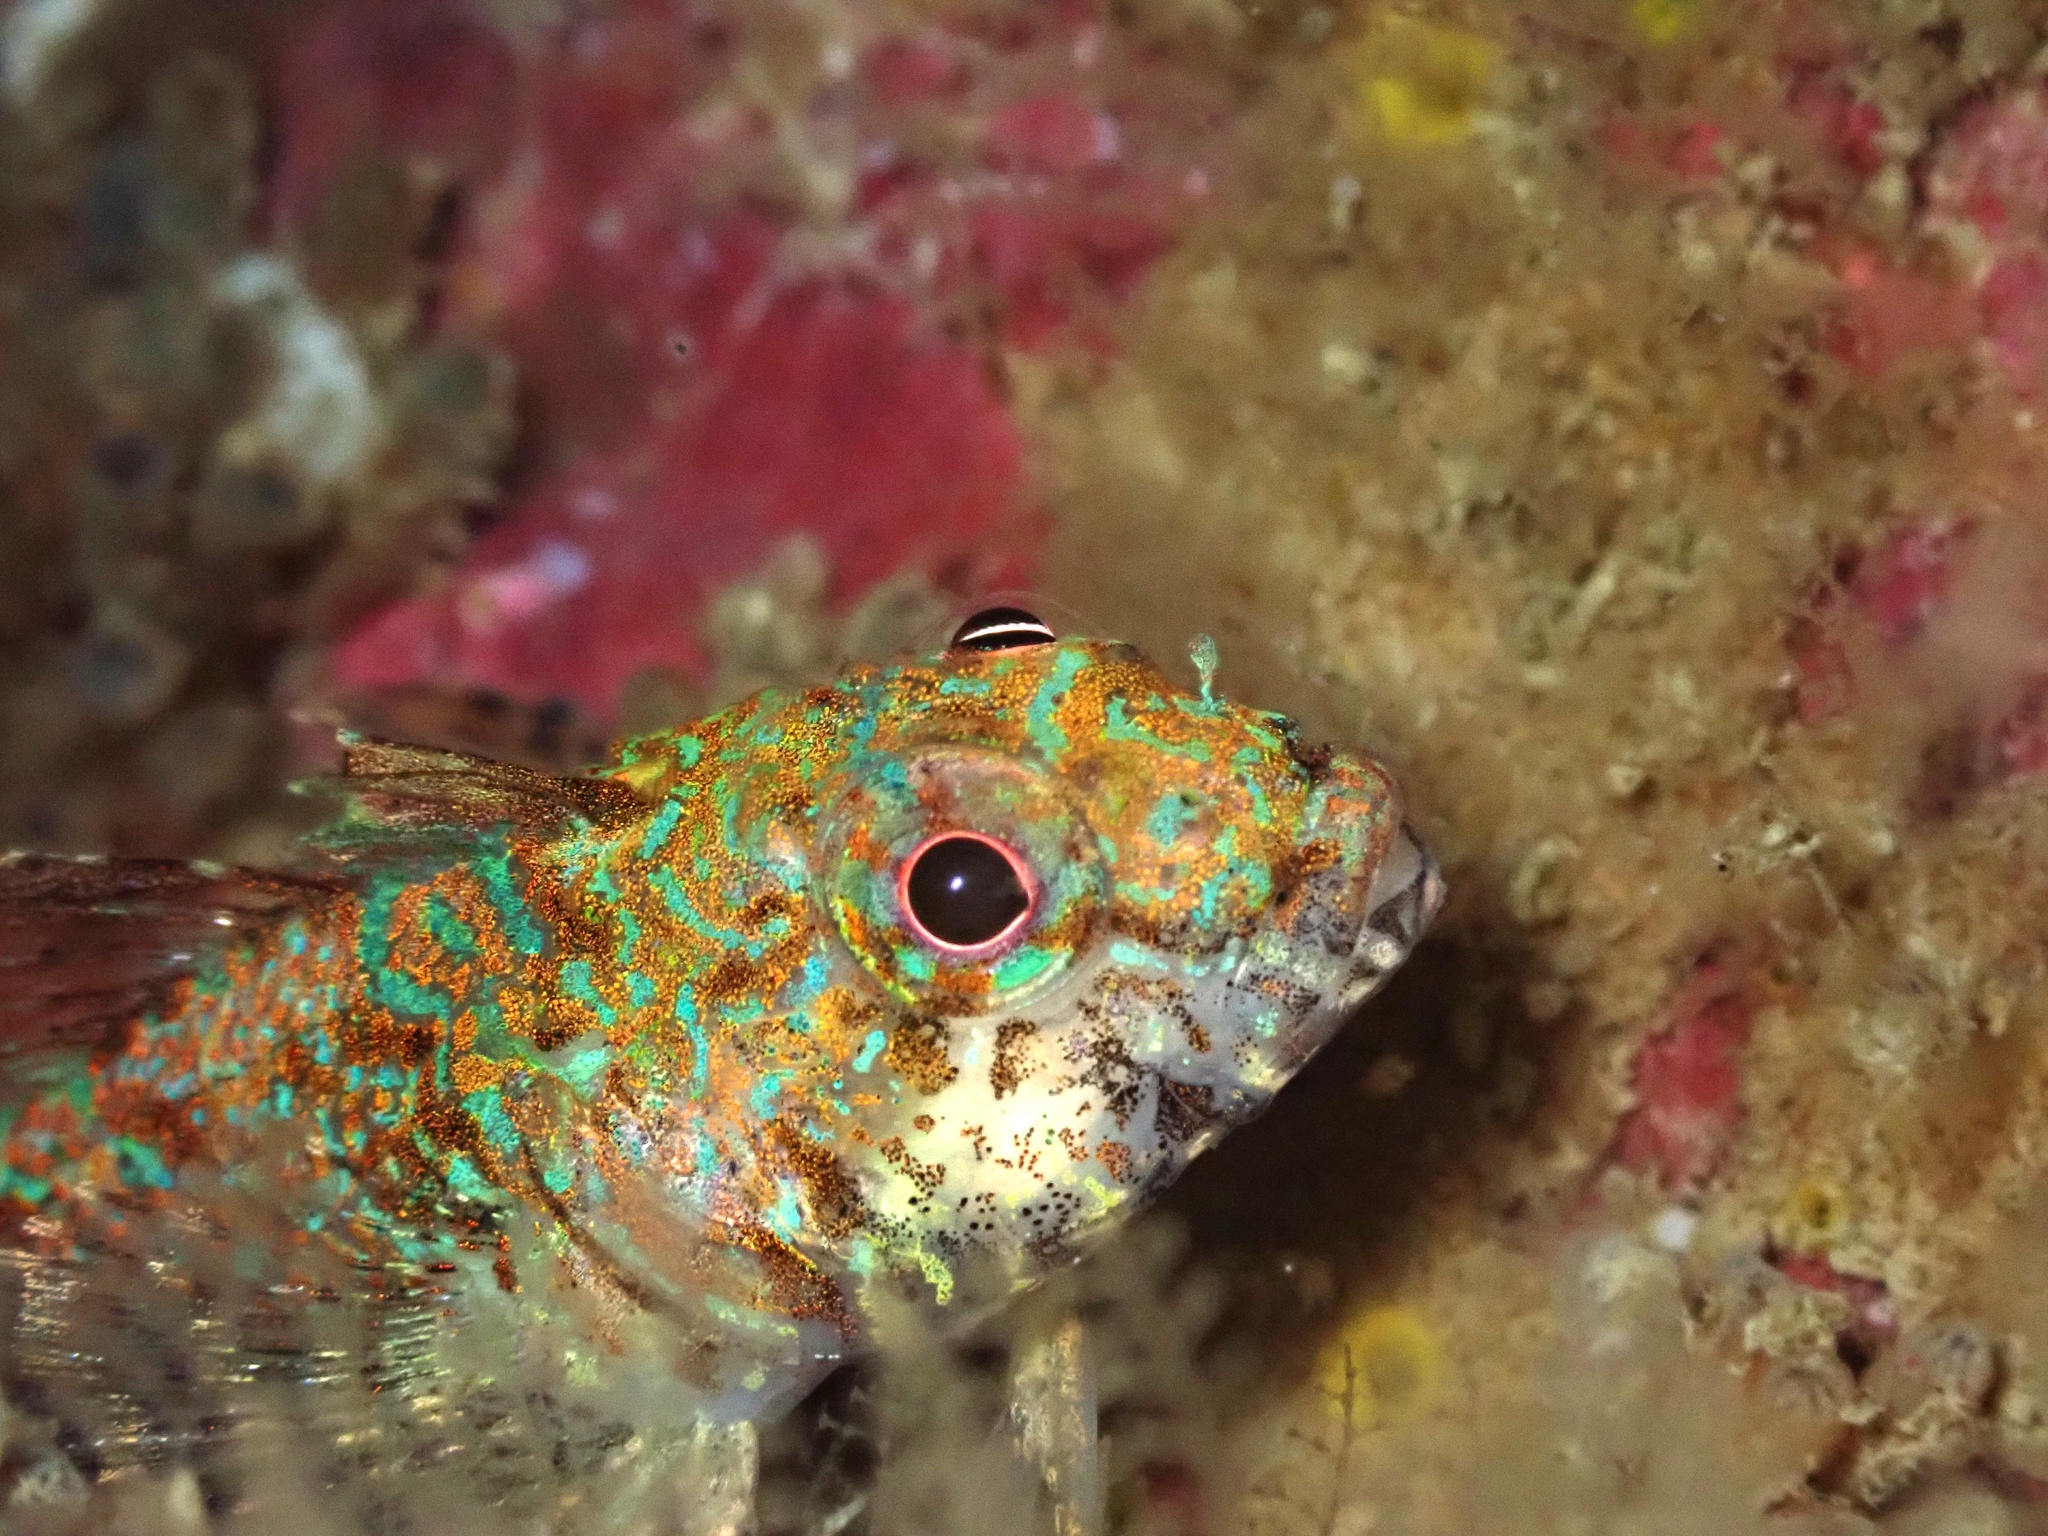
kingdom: Animalia
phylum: Chordata
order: Perciformes
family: Tripterygiidae
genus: Cryptichthys
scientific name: Cryptichthys jojettae
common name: Cryptic triplefin
